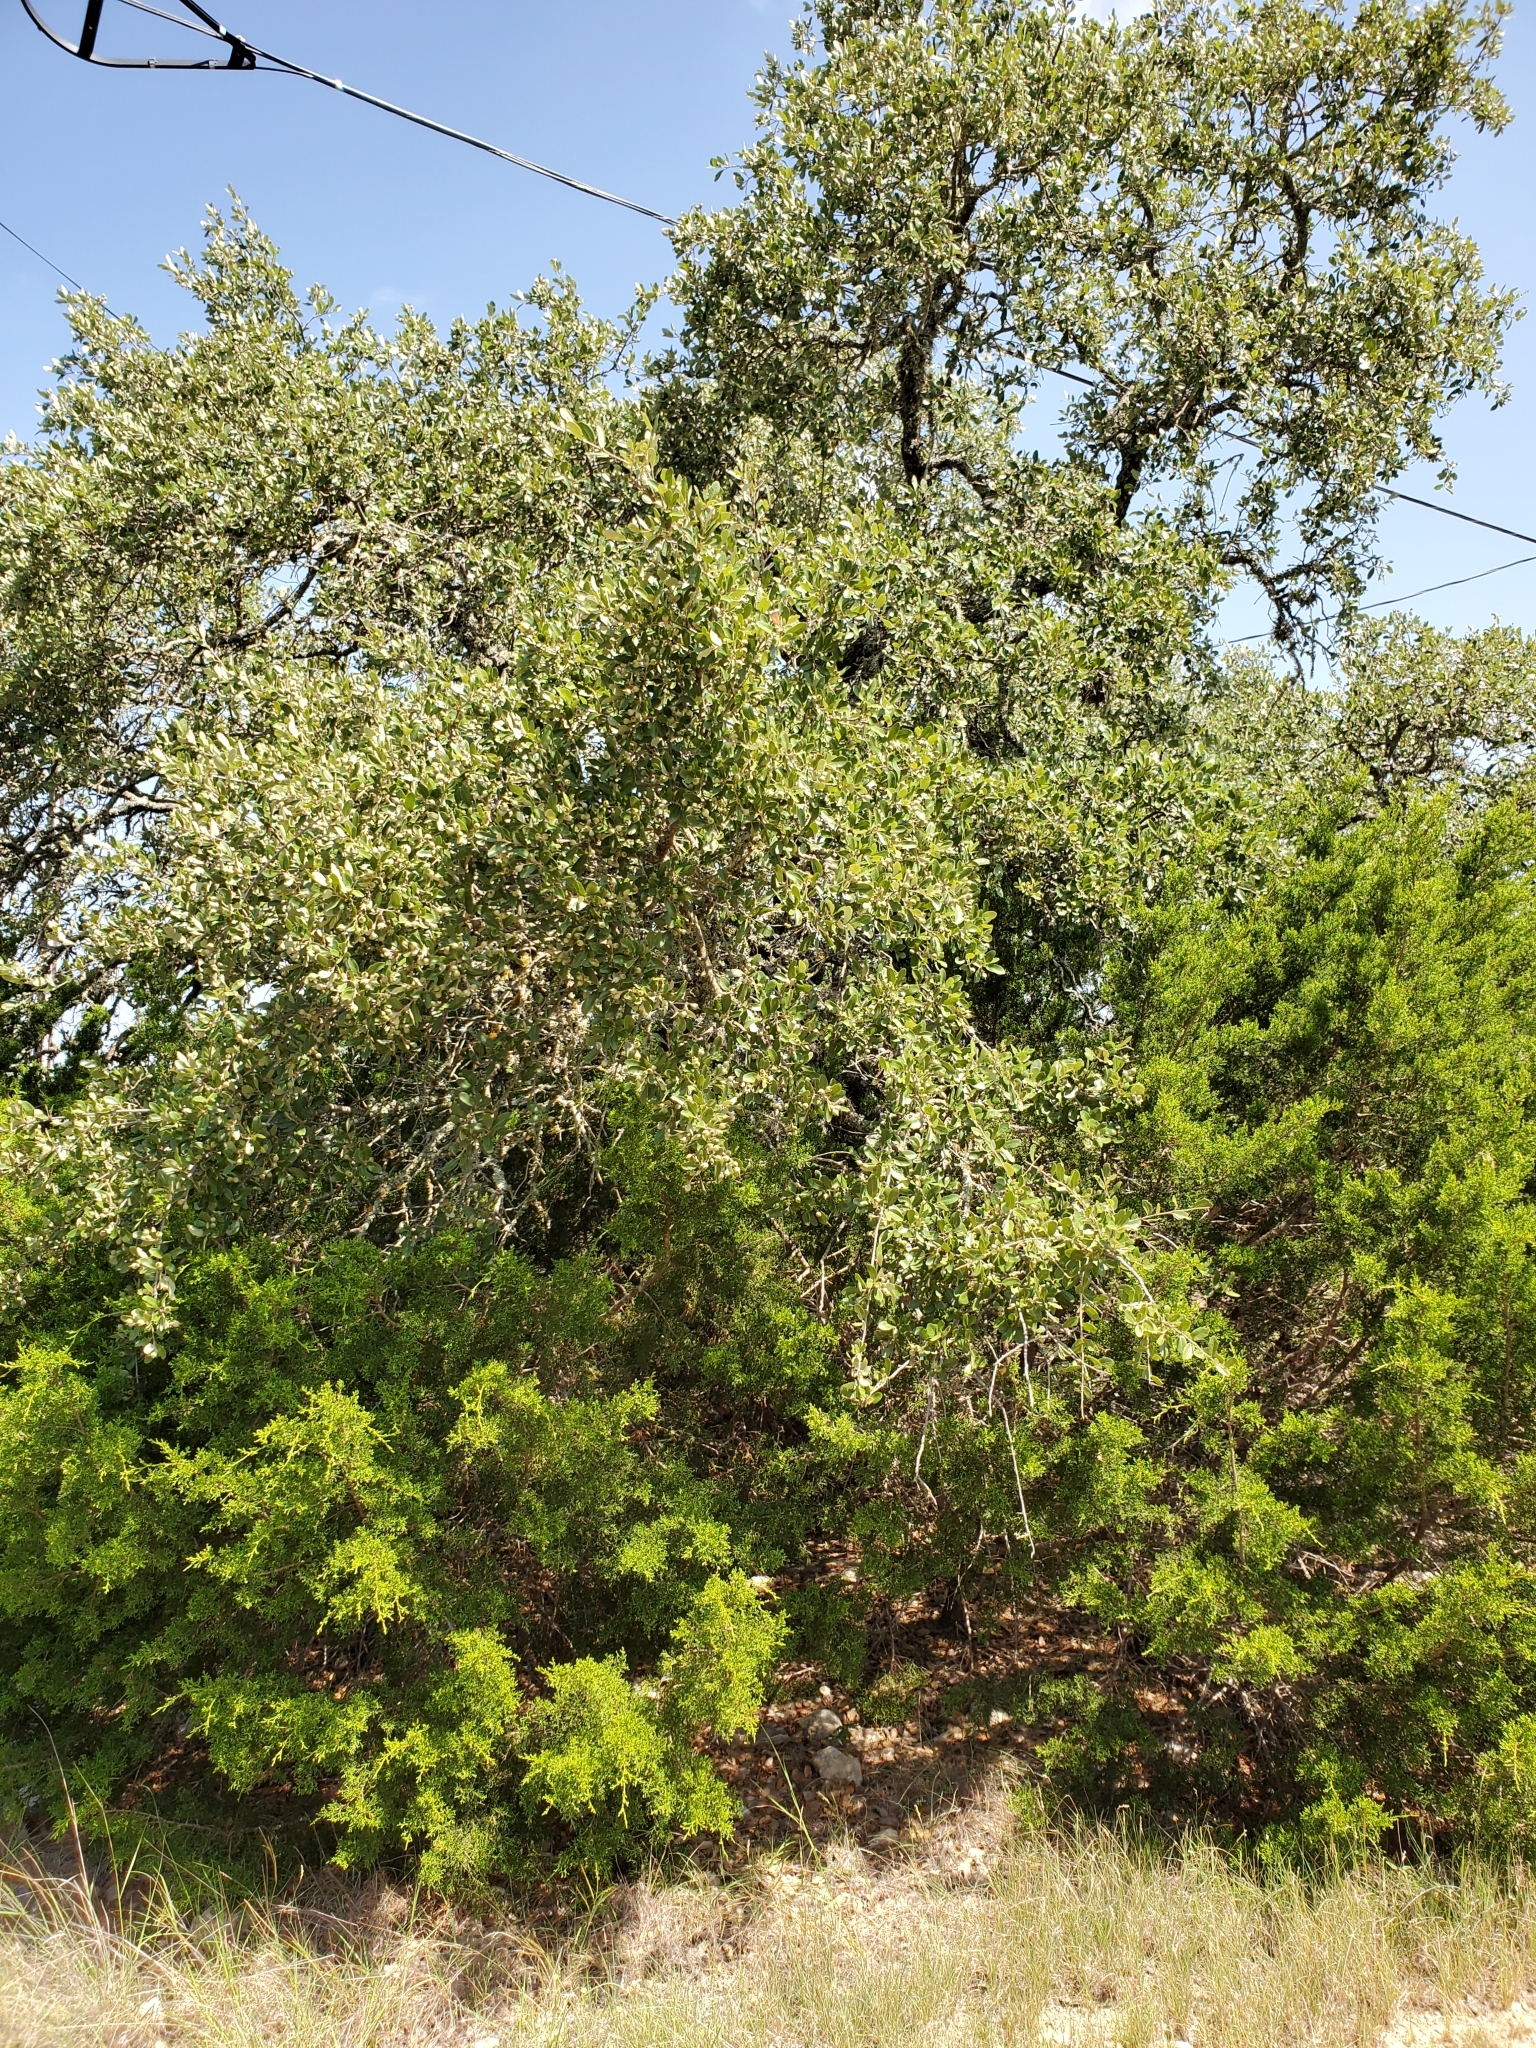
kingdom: Plantae
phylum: Tracheophyta
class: Magnoliopsida
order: Fagales
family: Fagaceae
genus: Quercus
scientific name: Quercus fusiformis
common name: Texas live oak
